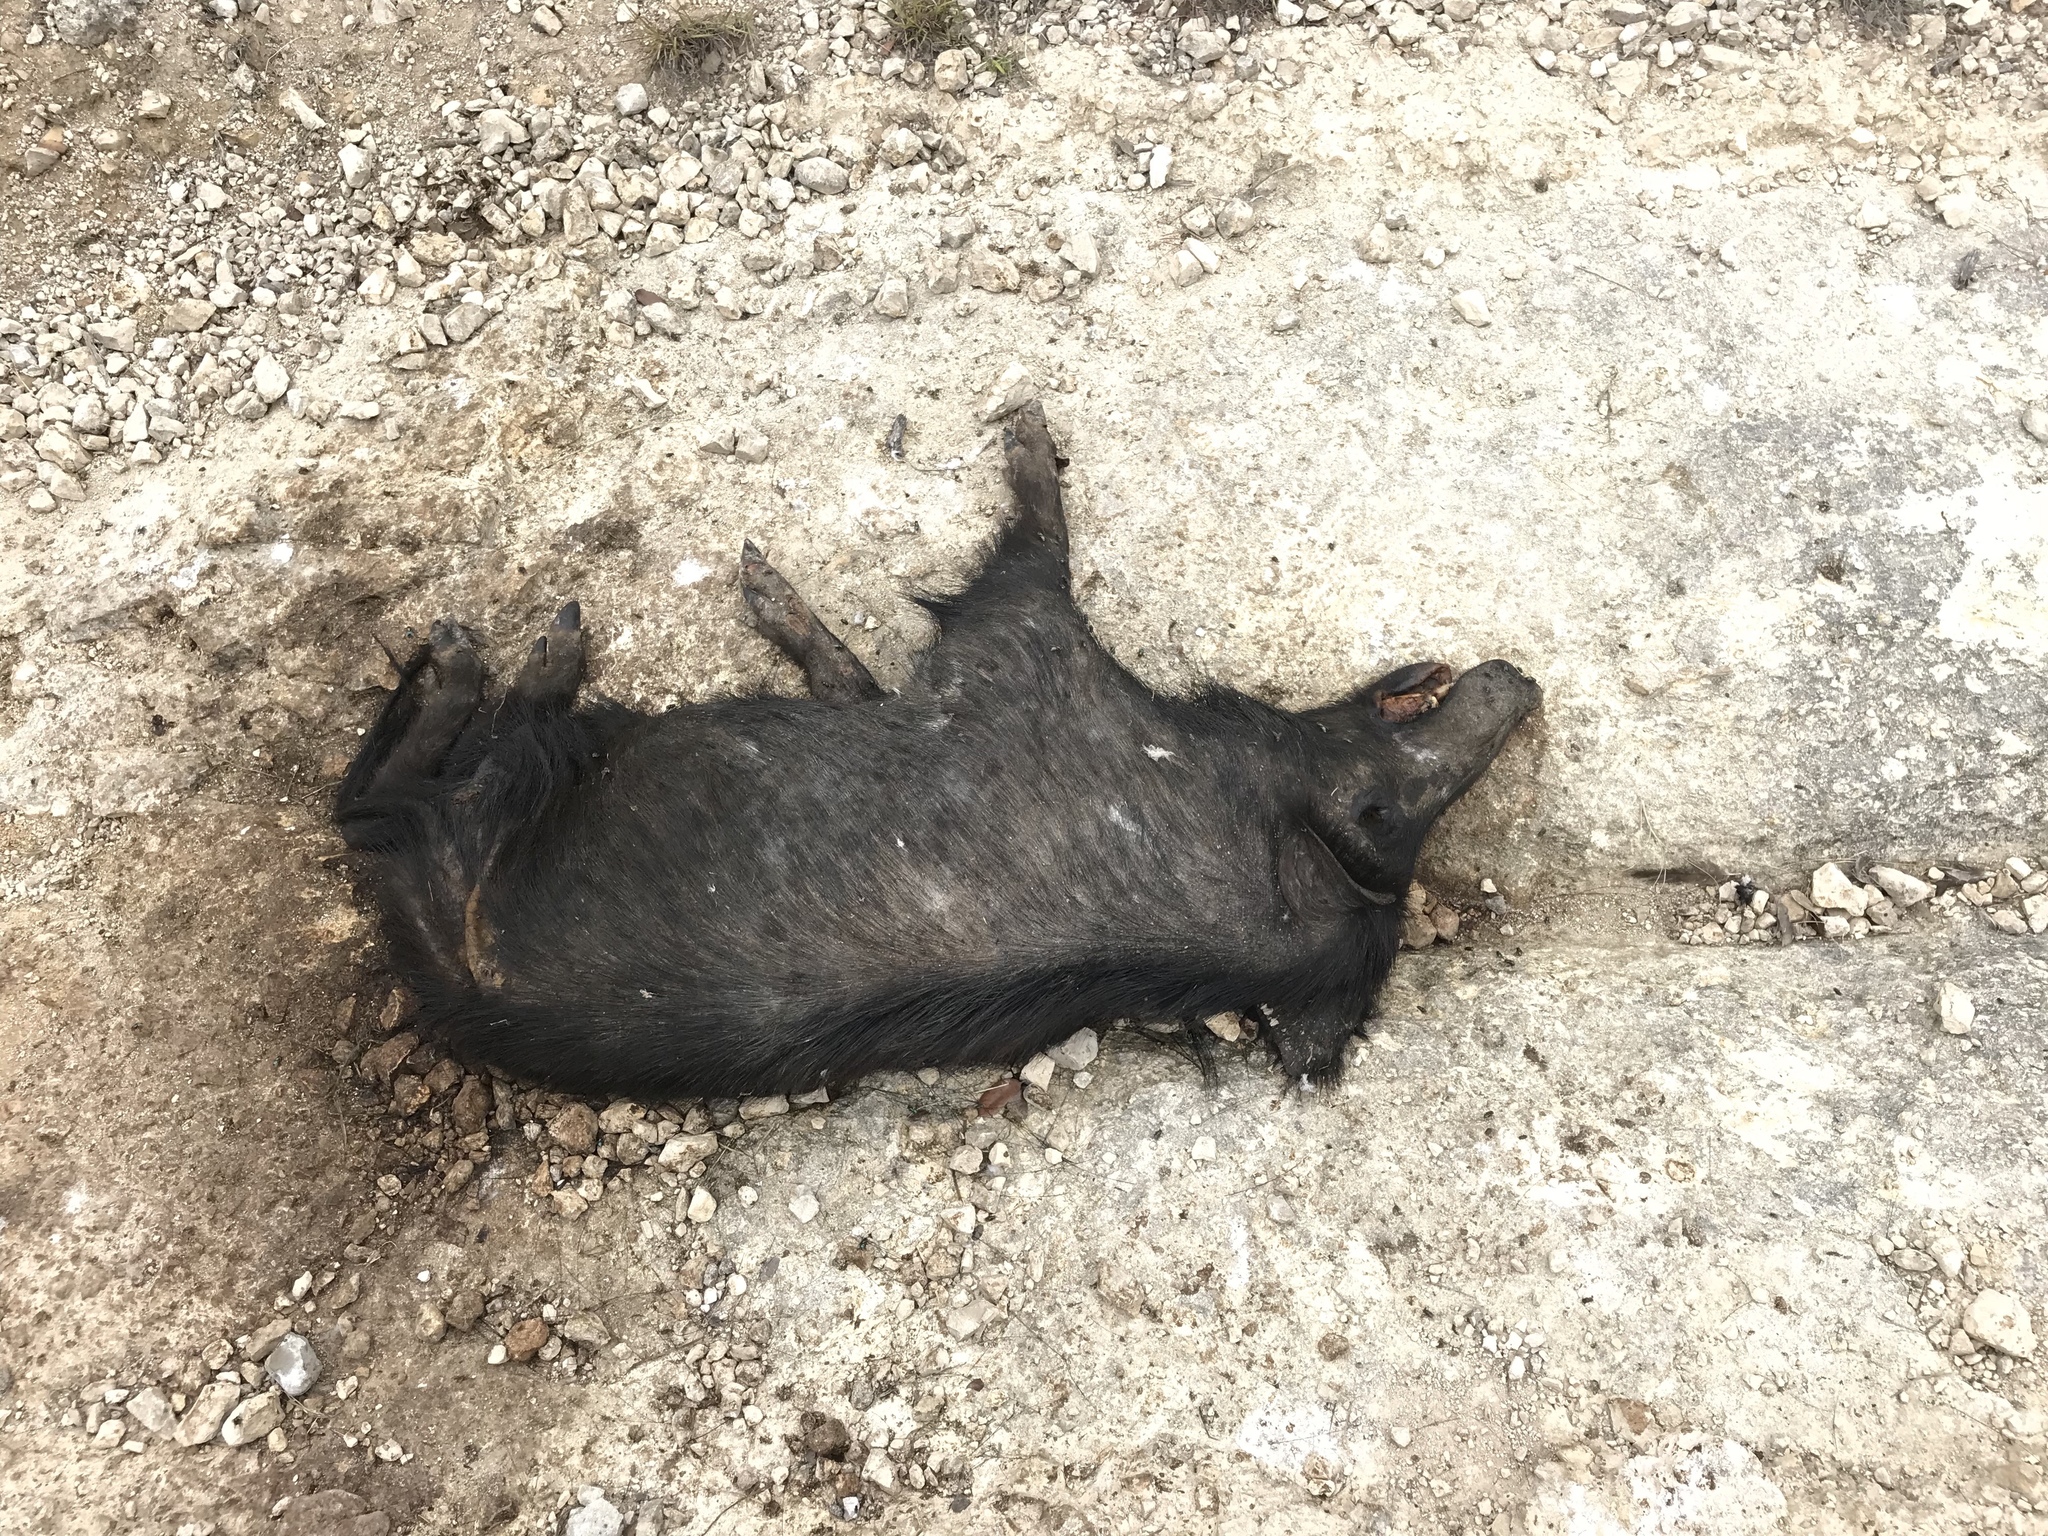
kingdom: Animalia
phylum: Chordata
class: Mammalia
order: Artiodactyla
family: Suidae
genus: Sus
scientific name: Sus scrofa
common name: Wild boar
